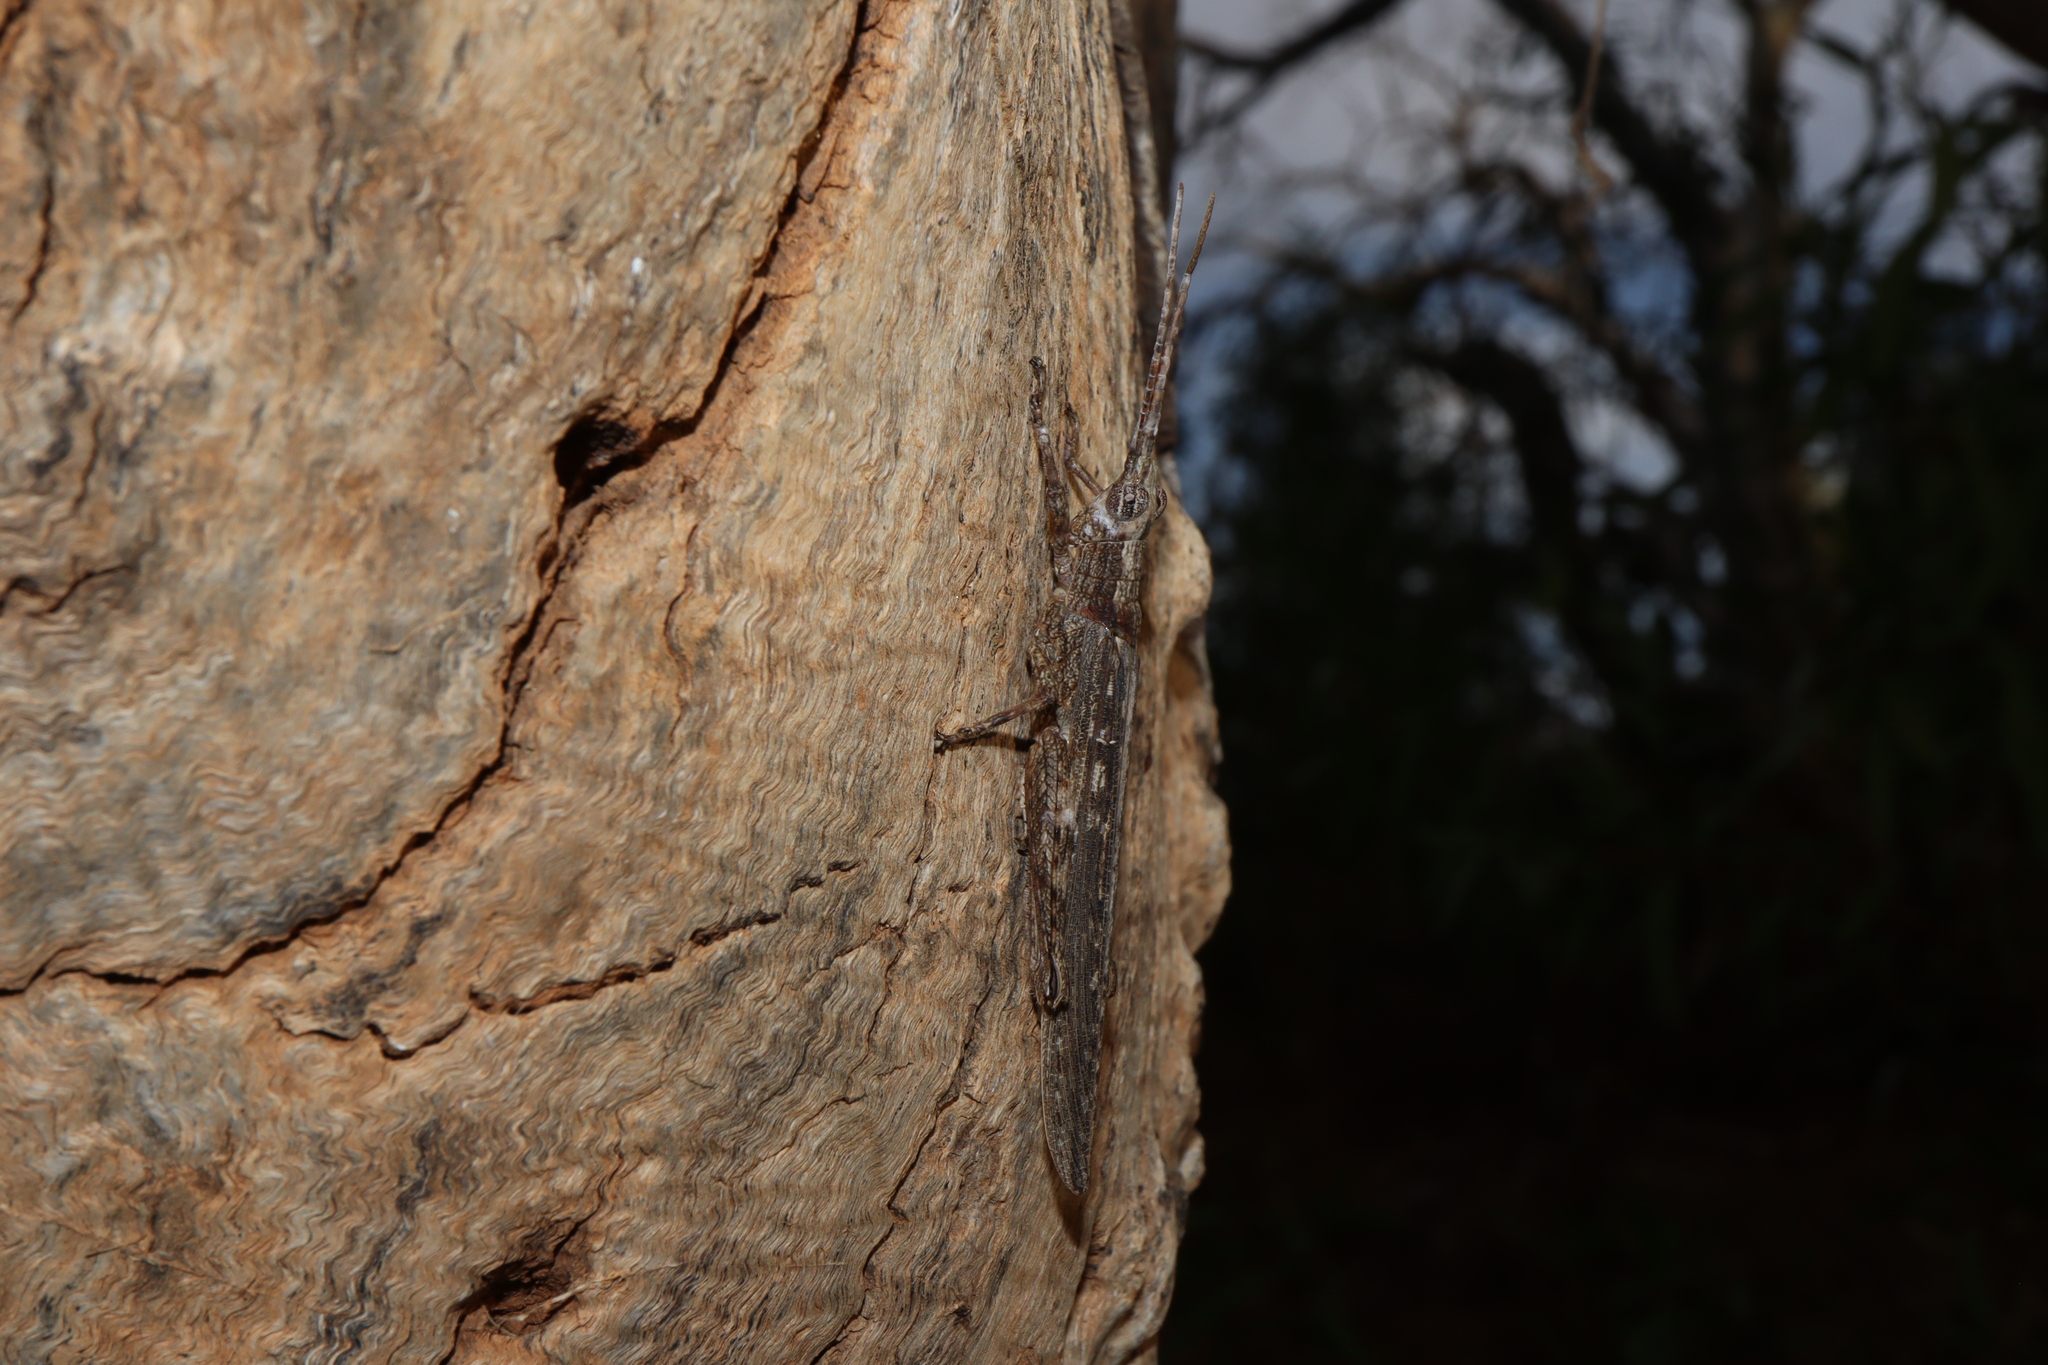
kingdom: Animalia
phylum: Arthropoda
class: Insecta
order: Orthoptera
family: Acrididae
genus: Coryphistes
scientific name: Coryphistes ruricola
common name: Bark-mimicking grasshopper
